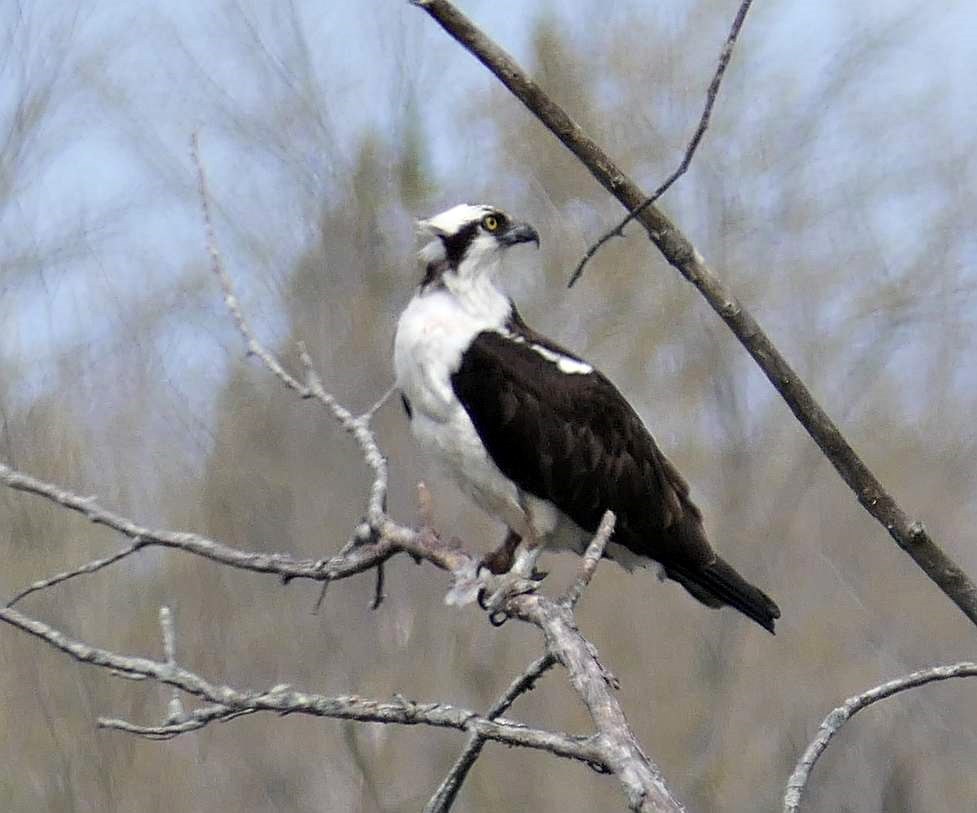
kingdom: Animalia
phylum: Chordata
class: Aves
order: Accipitriformes
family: Pandionidae
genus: Pandion
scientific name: Pandion haliaetus
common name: Osprey
